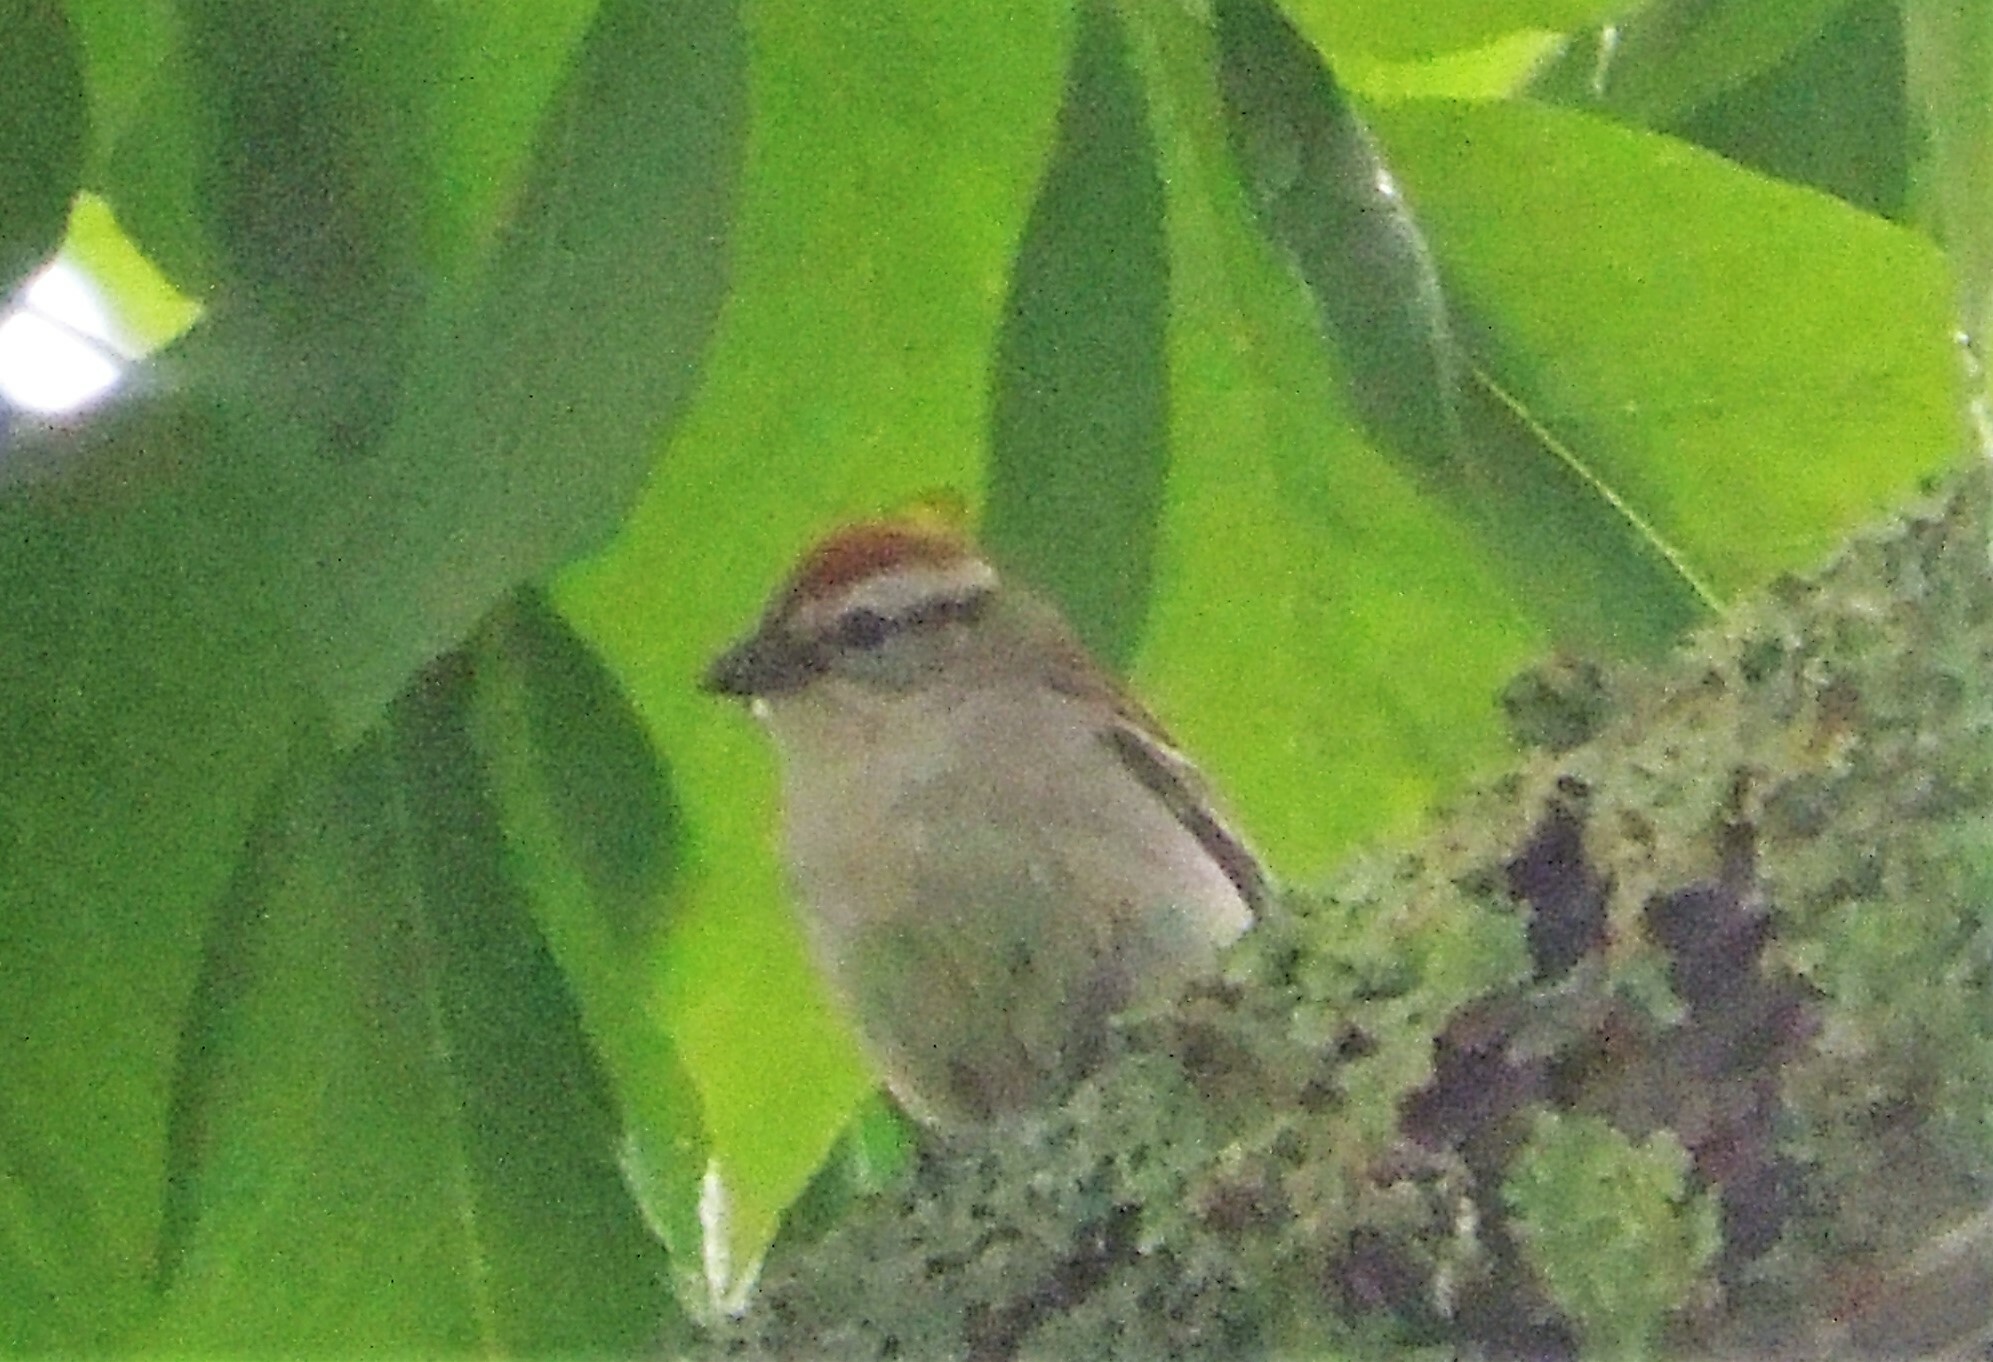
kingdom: Animalia
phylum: Chordata
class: Aves
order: Passeriformes
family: Passerellidae
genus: Spizella
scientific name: Spizella passerina
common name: Chipping sparrow
